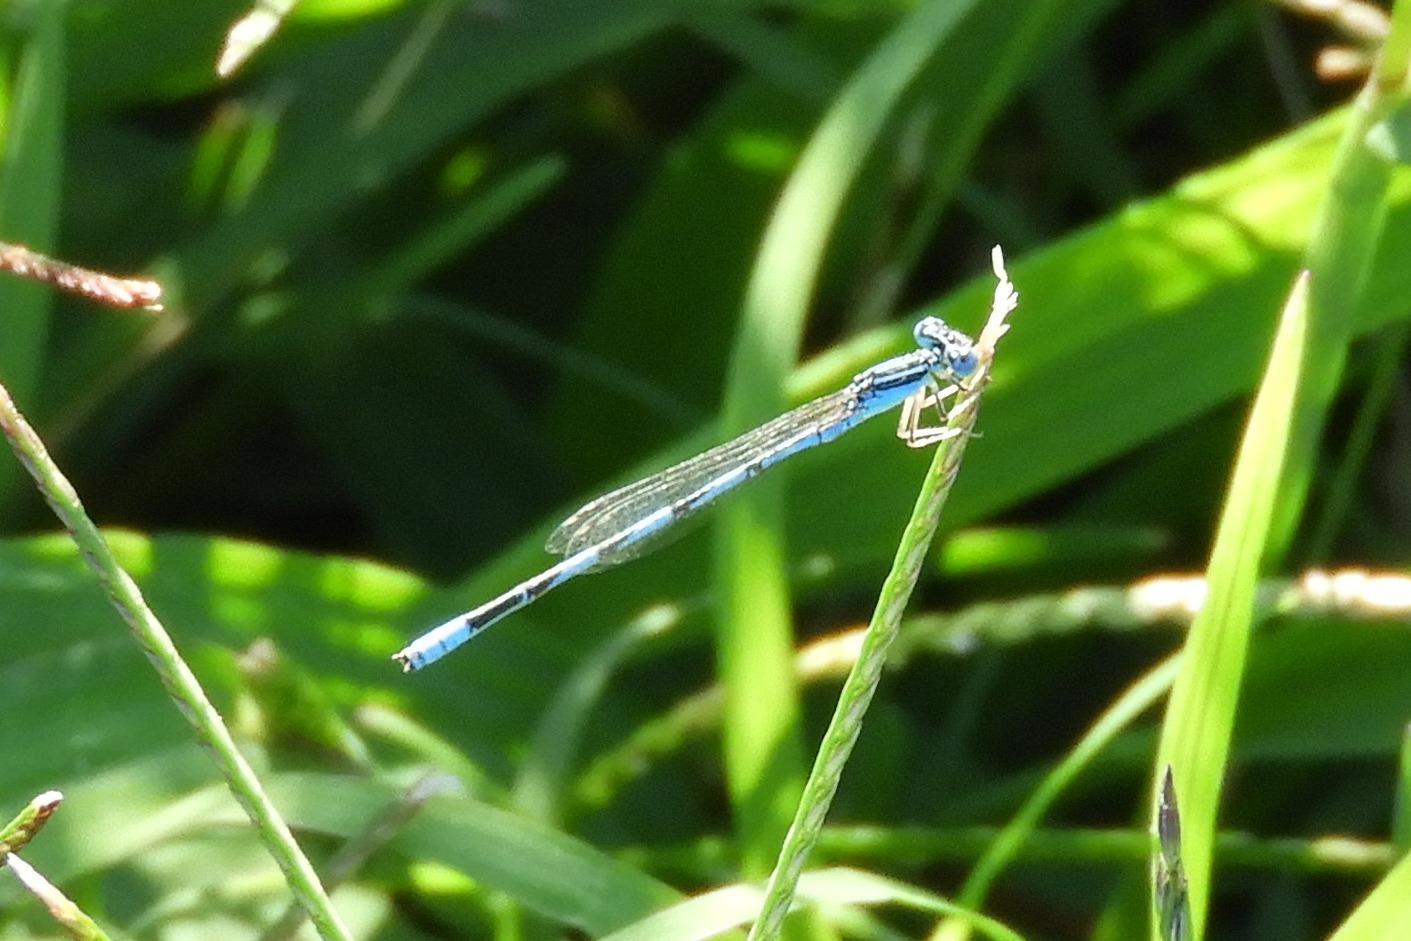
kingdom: Animalia
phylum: Arthropoda
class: Insecta
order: Odonata
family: Coenagrionidae
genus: Enallagma
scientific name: Enallagma basidens
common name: Double-striped bluet
